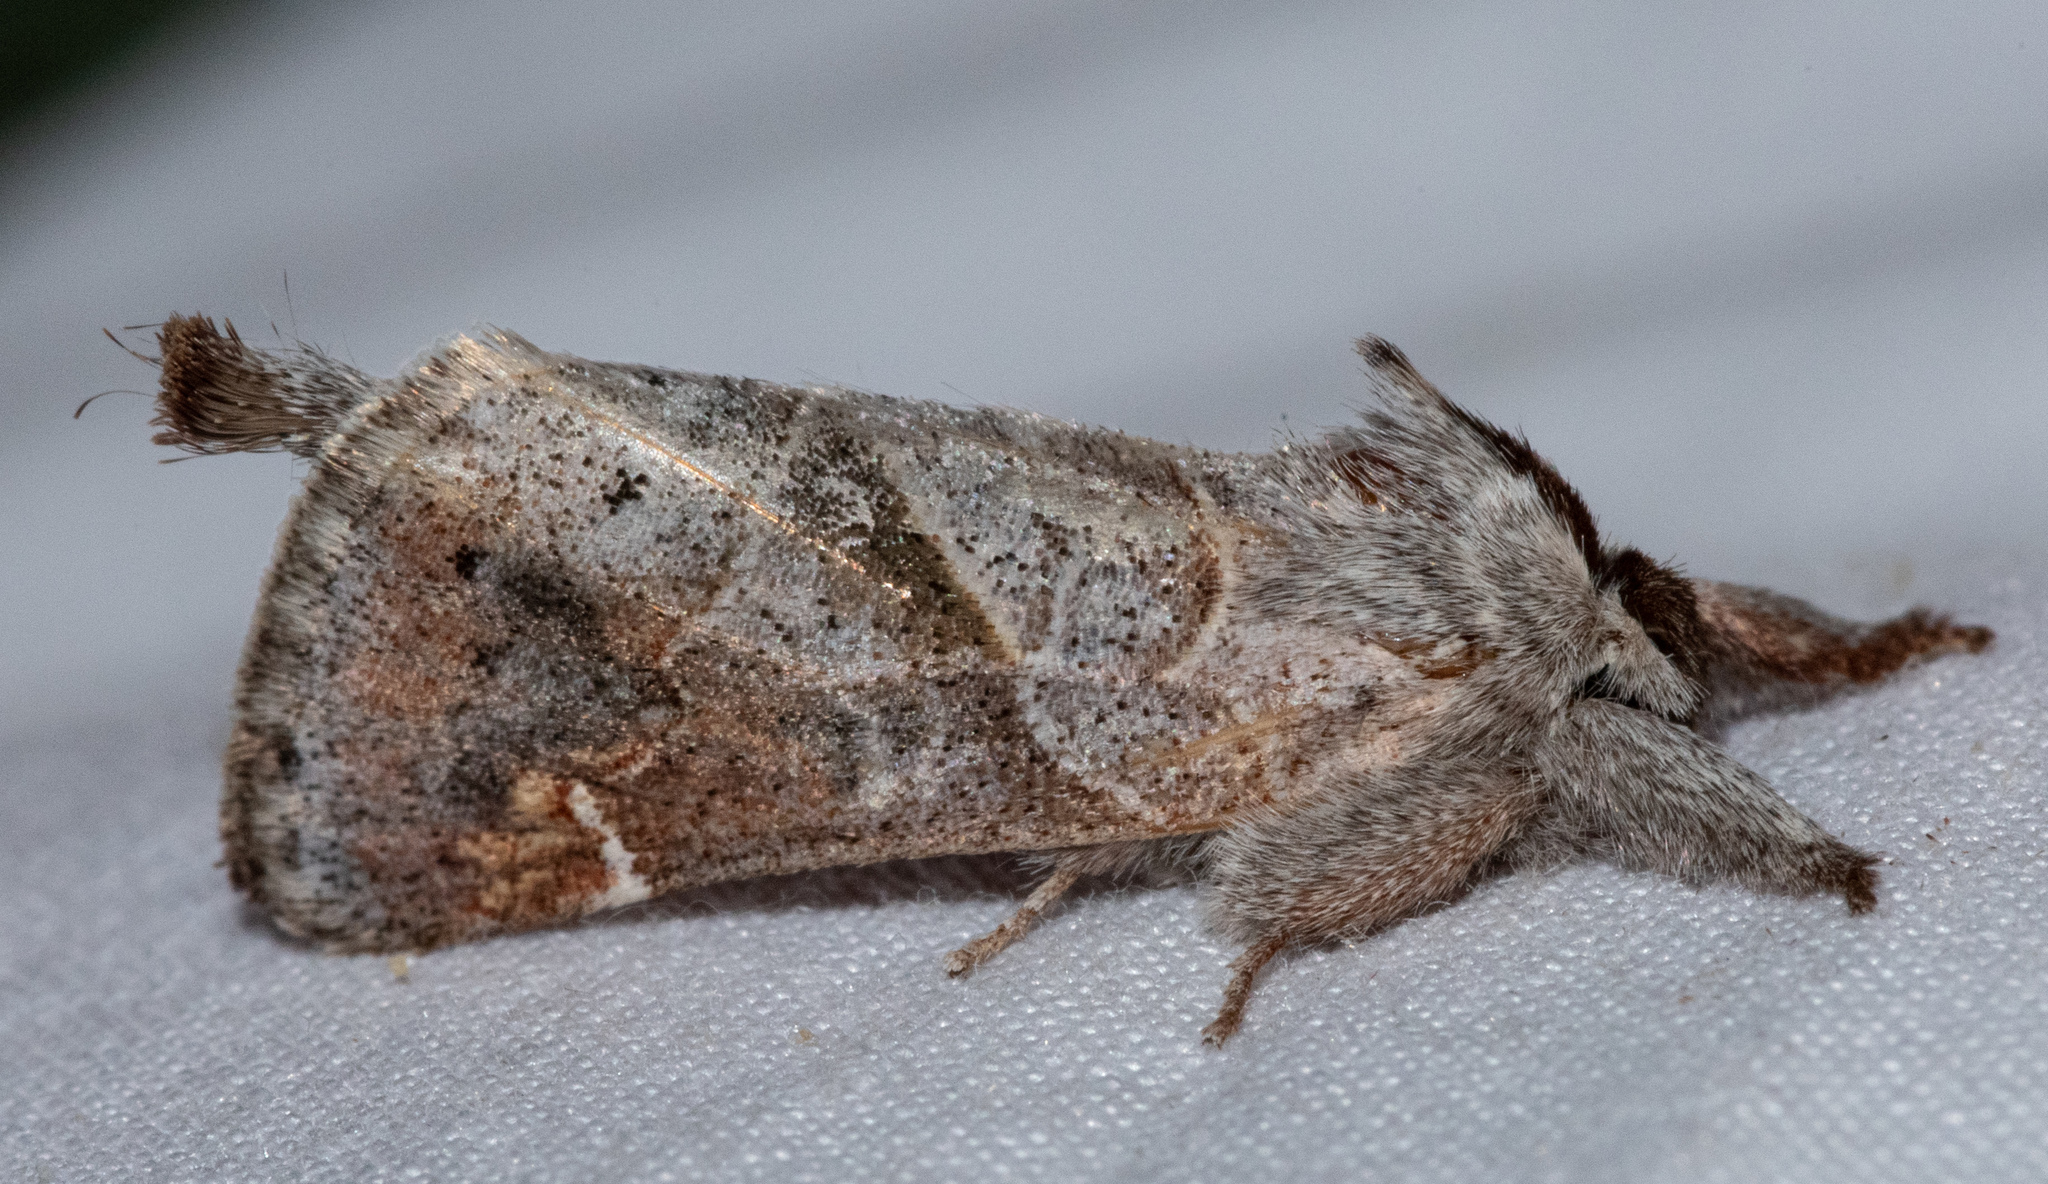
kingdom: Animalia
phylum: Arthropoda
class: Insecta
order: Lepidoptera
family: Notodontidae
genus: Clostera
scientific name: Clostera
